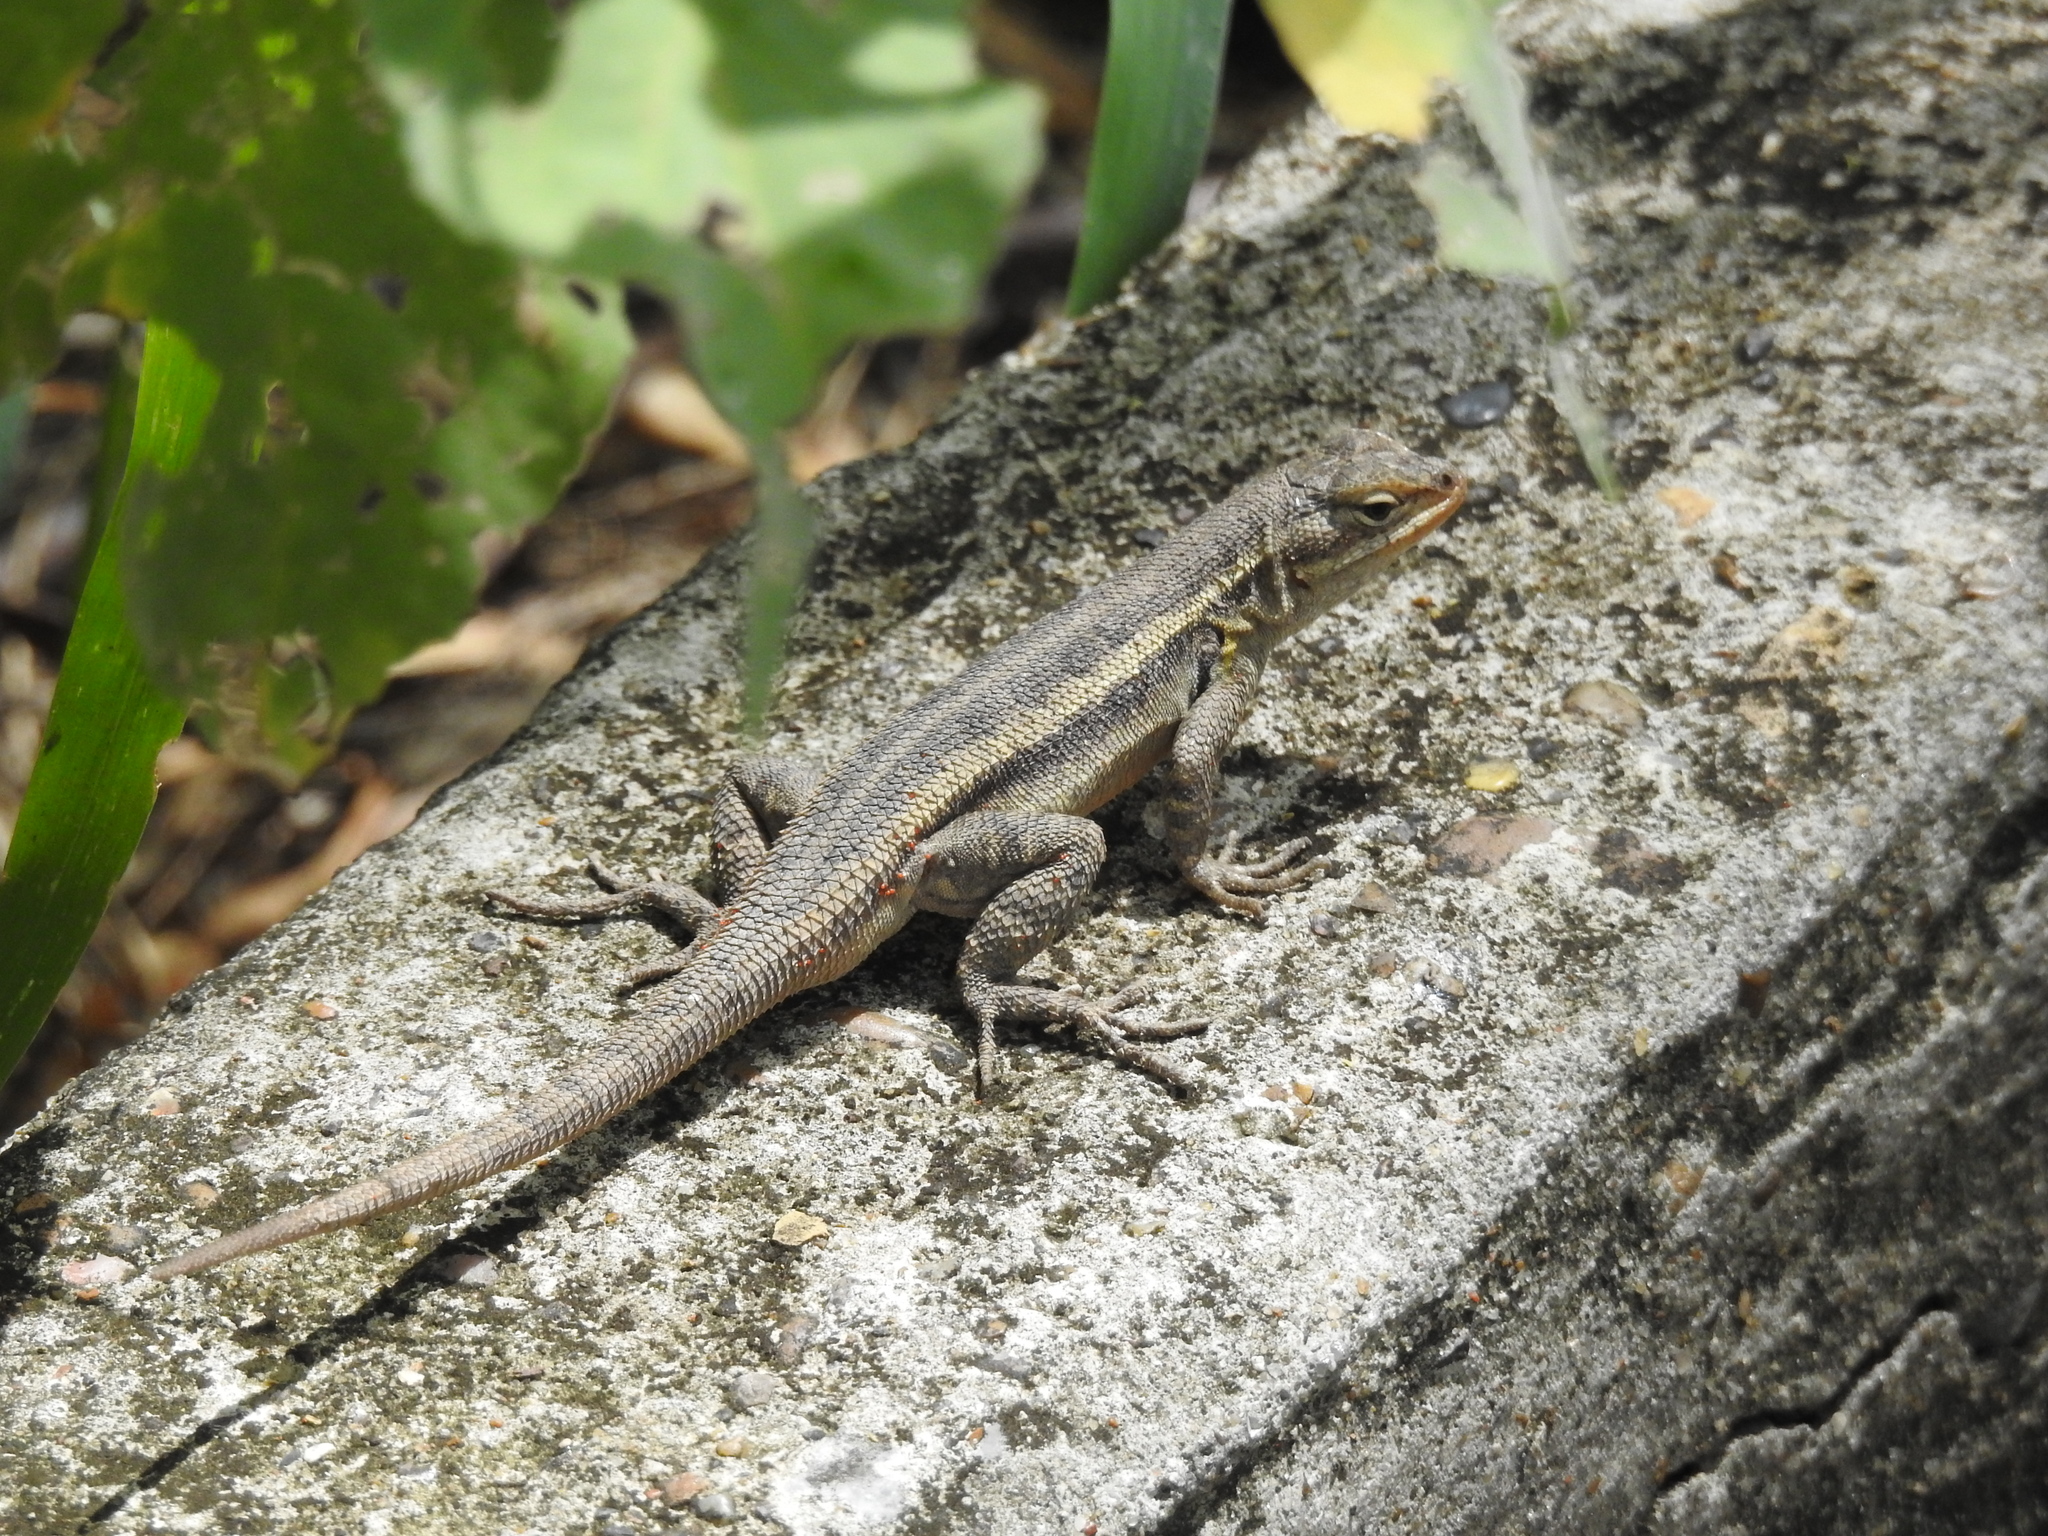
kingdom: Animalia
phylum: Chordata
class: Squamata
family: Phrynosomatidae
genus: Sceloporus
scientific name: Sceloporus variabilis
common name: Rosebelly lizard
